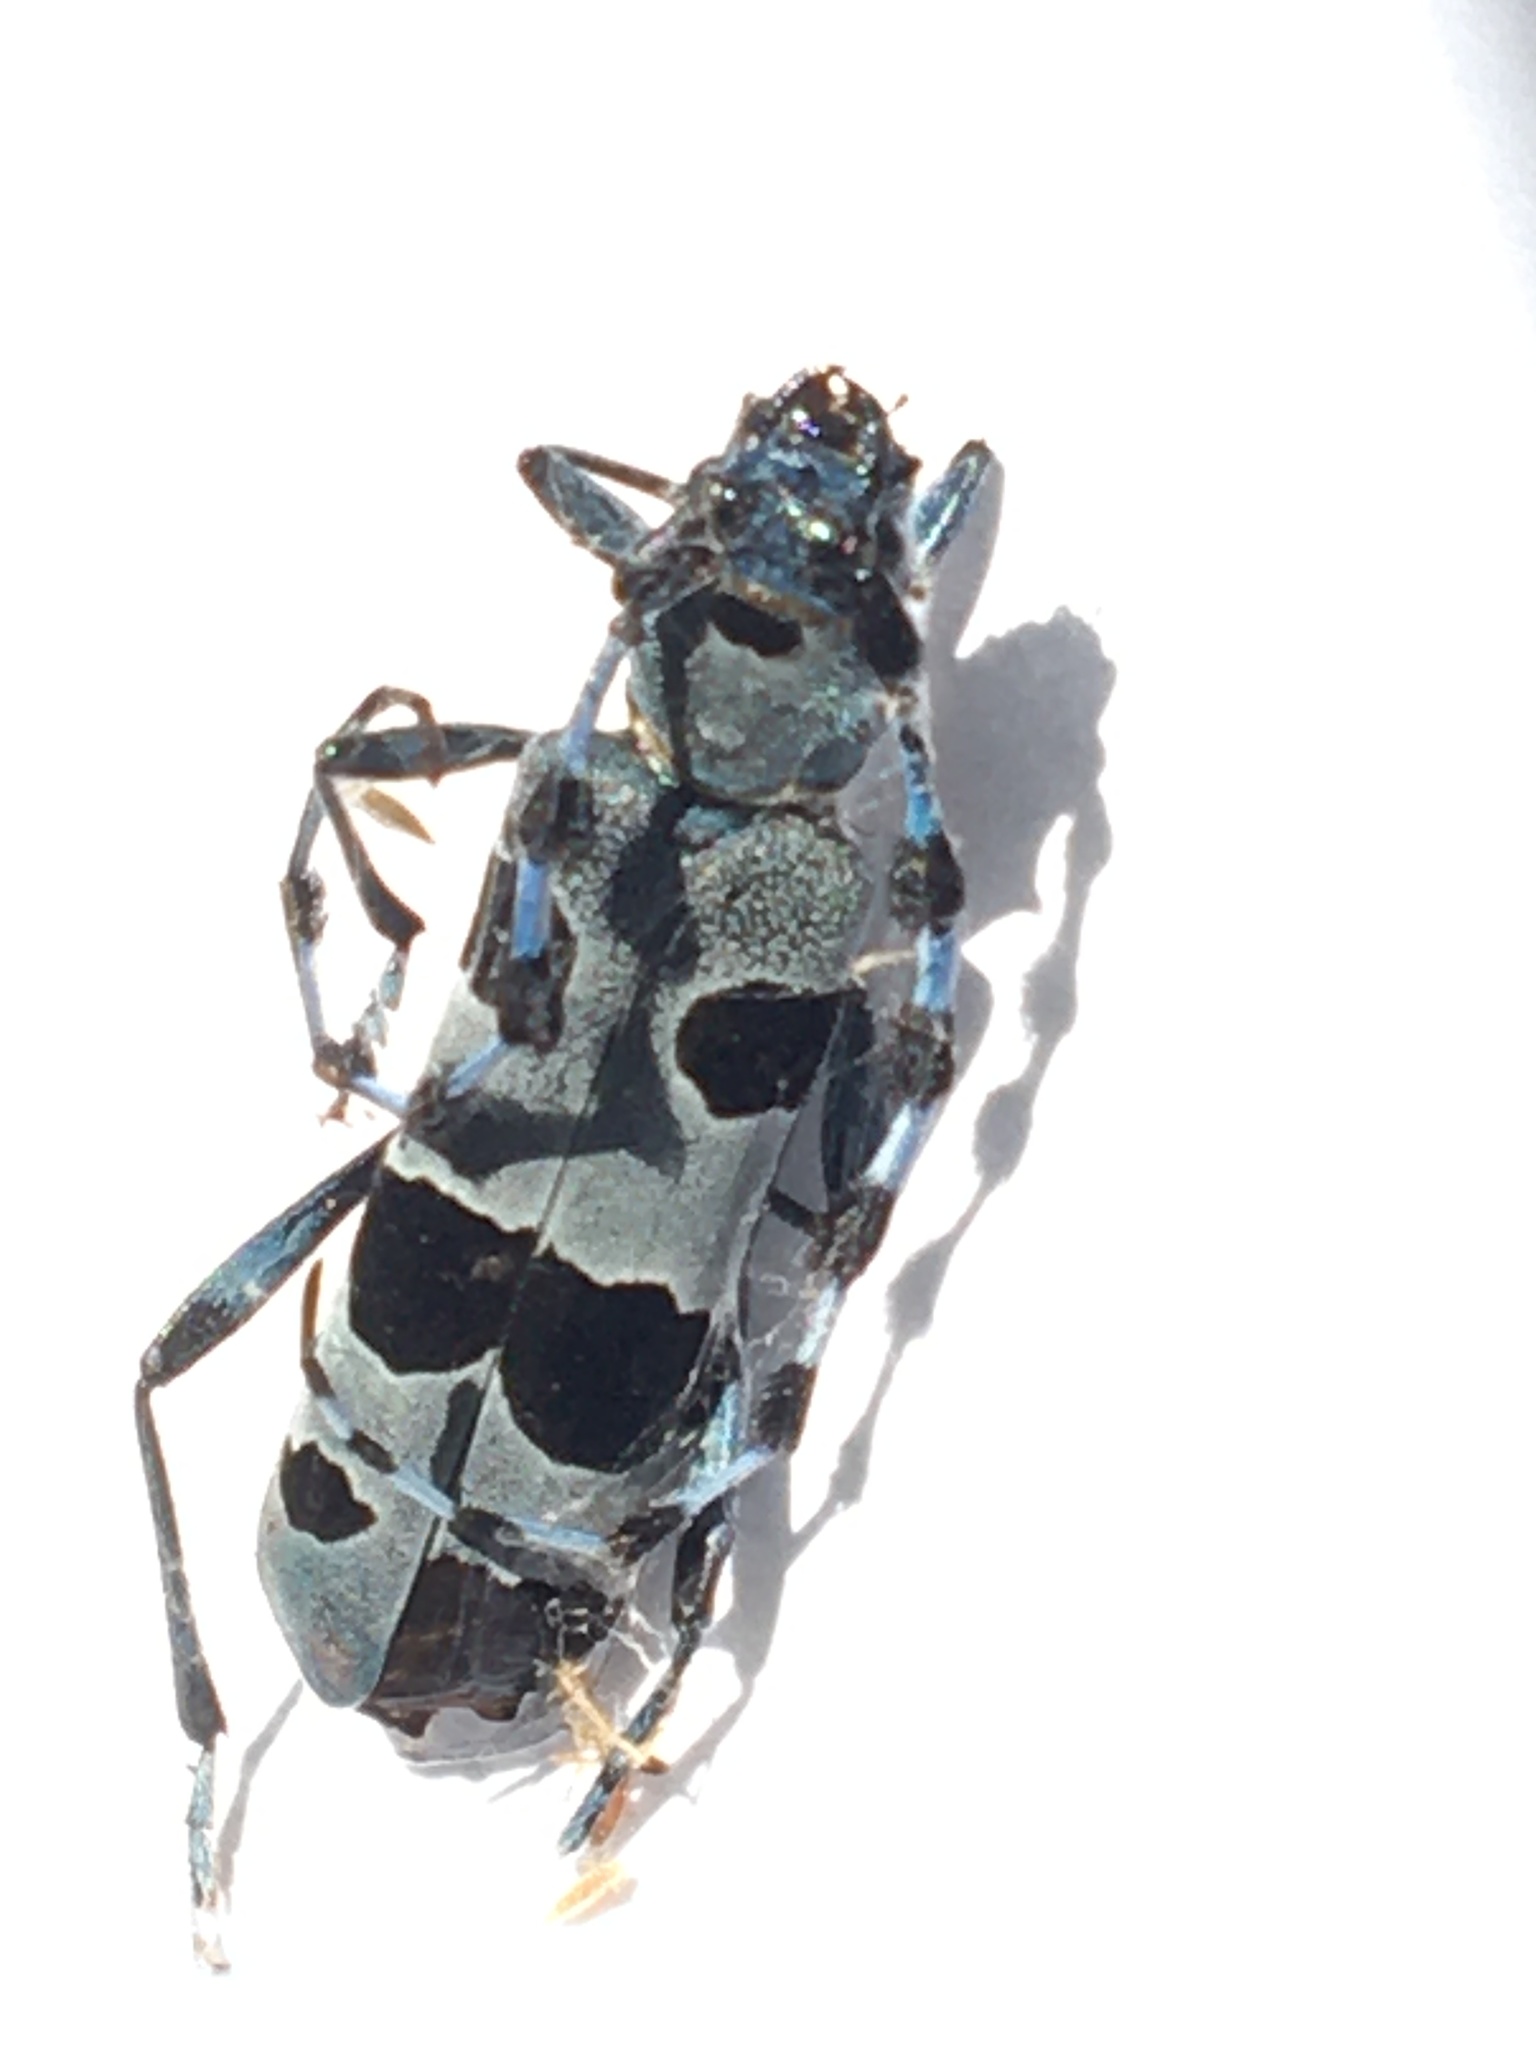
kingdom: Animalia
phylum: Arthropoda
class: Insecta
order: Coleoptera
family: Cerambycidae
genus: Rosalia
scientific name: Rosalia alpina
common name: Rosalia longicorn
